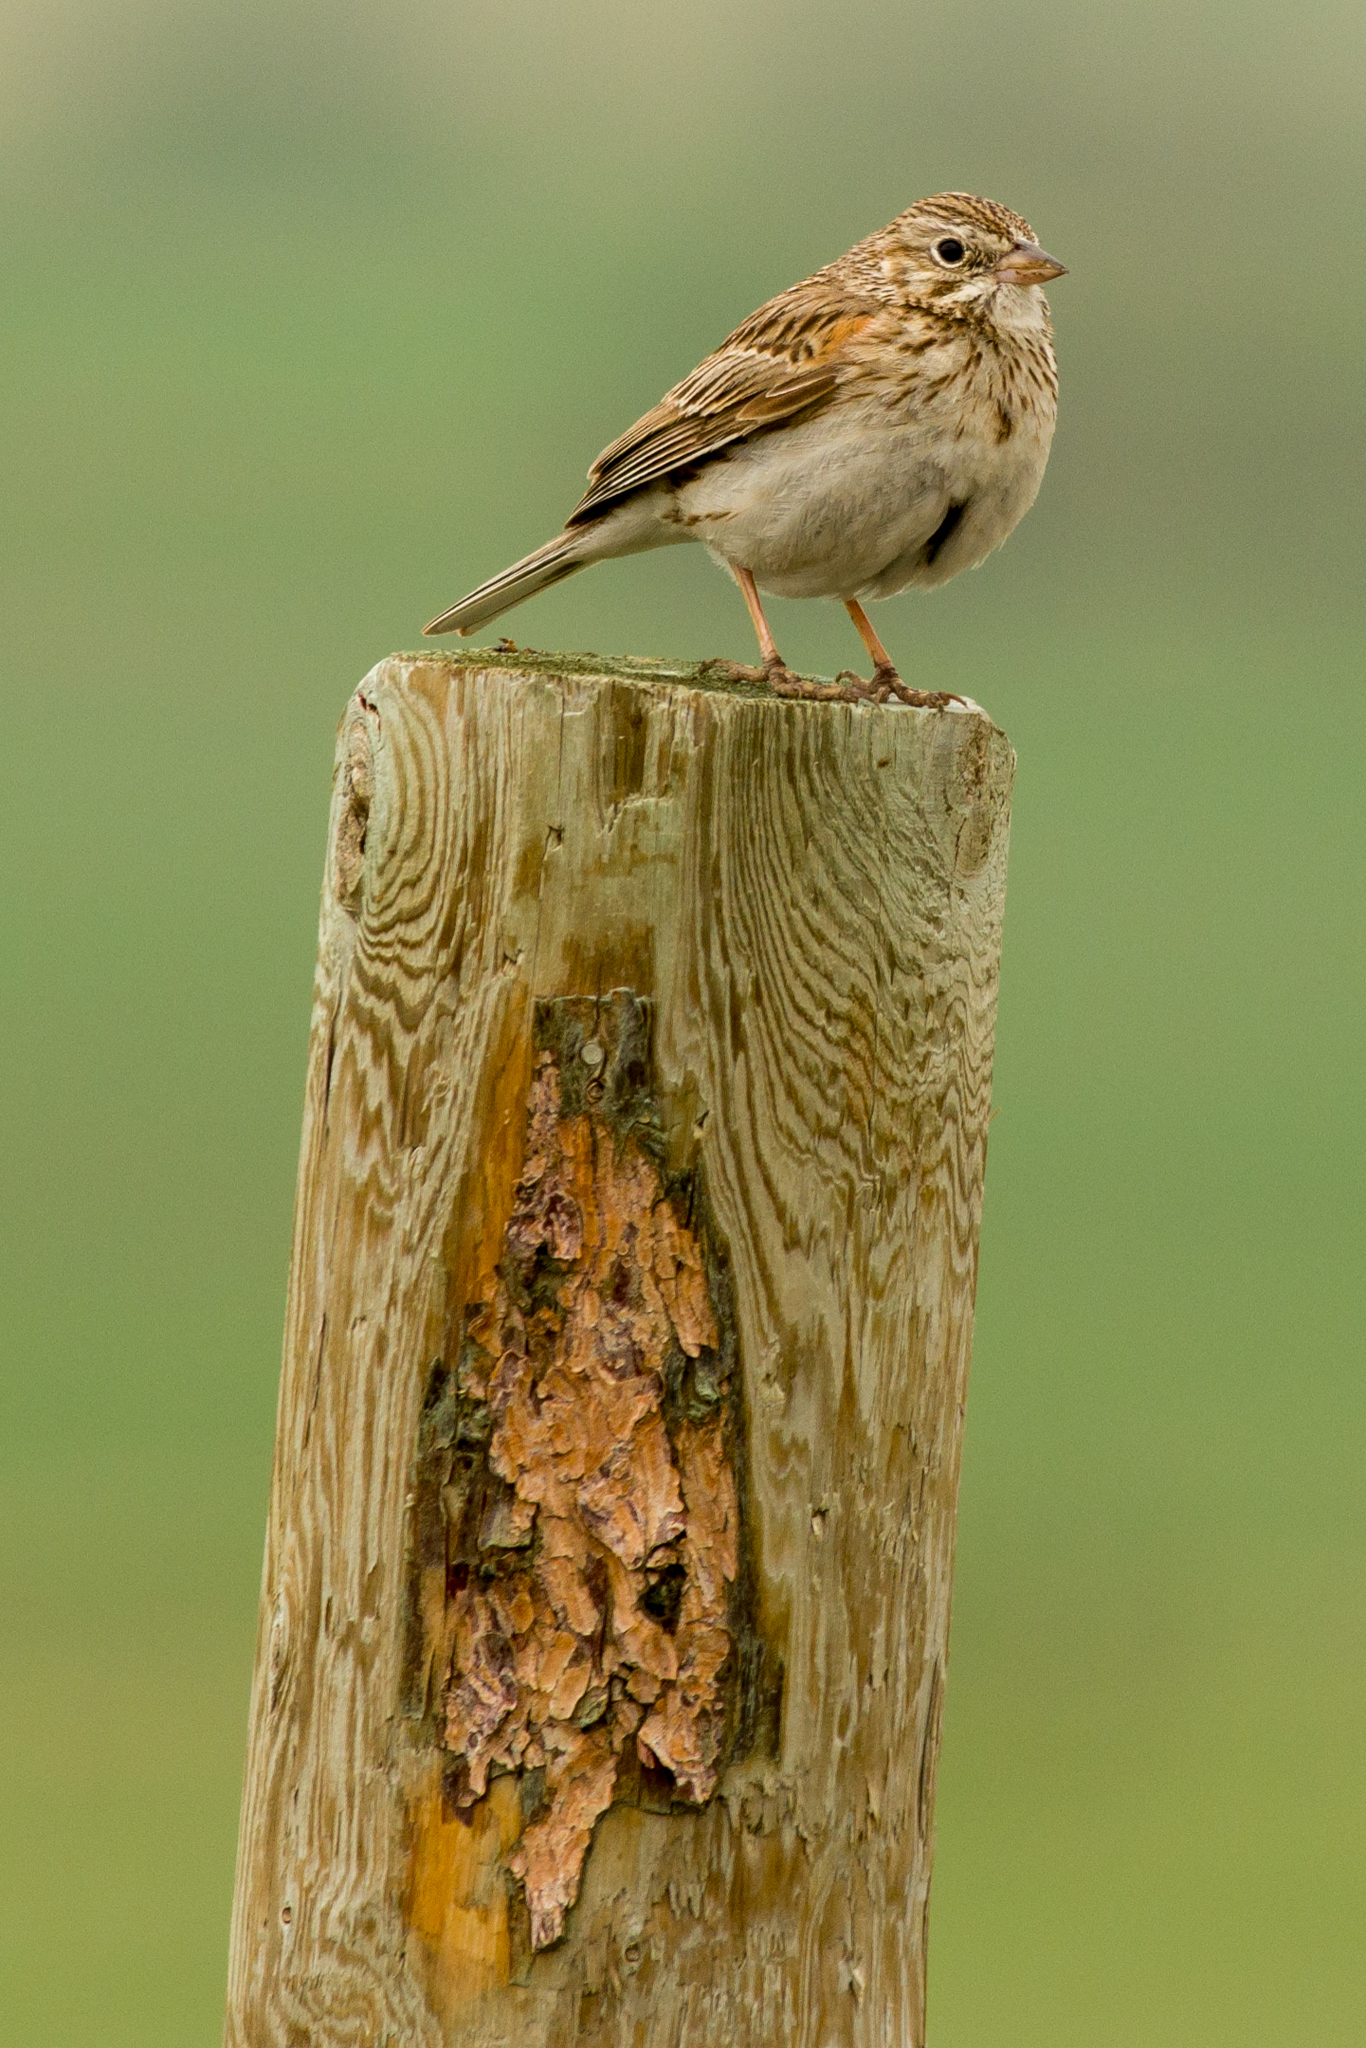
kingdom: Animalia
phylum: Chordata
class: Aves
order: Passeriformes
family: Passerellidae
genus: Pooecetes
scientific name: Pooecetes gramineus
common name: Vesper sparrow
